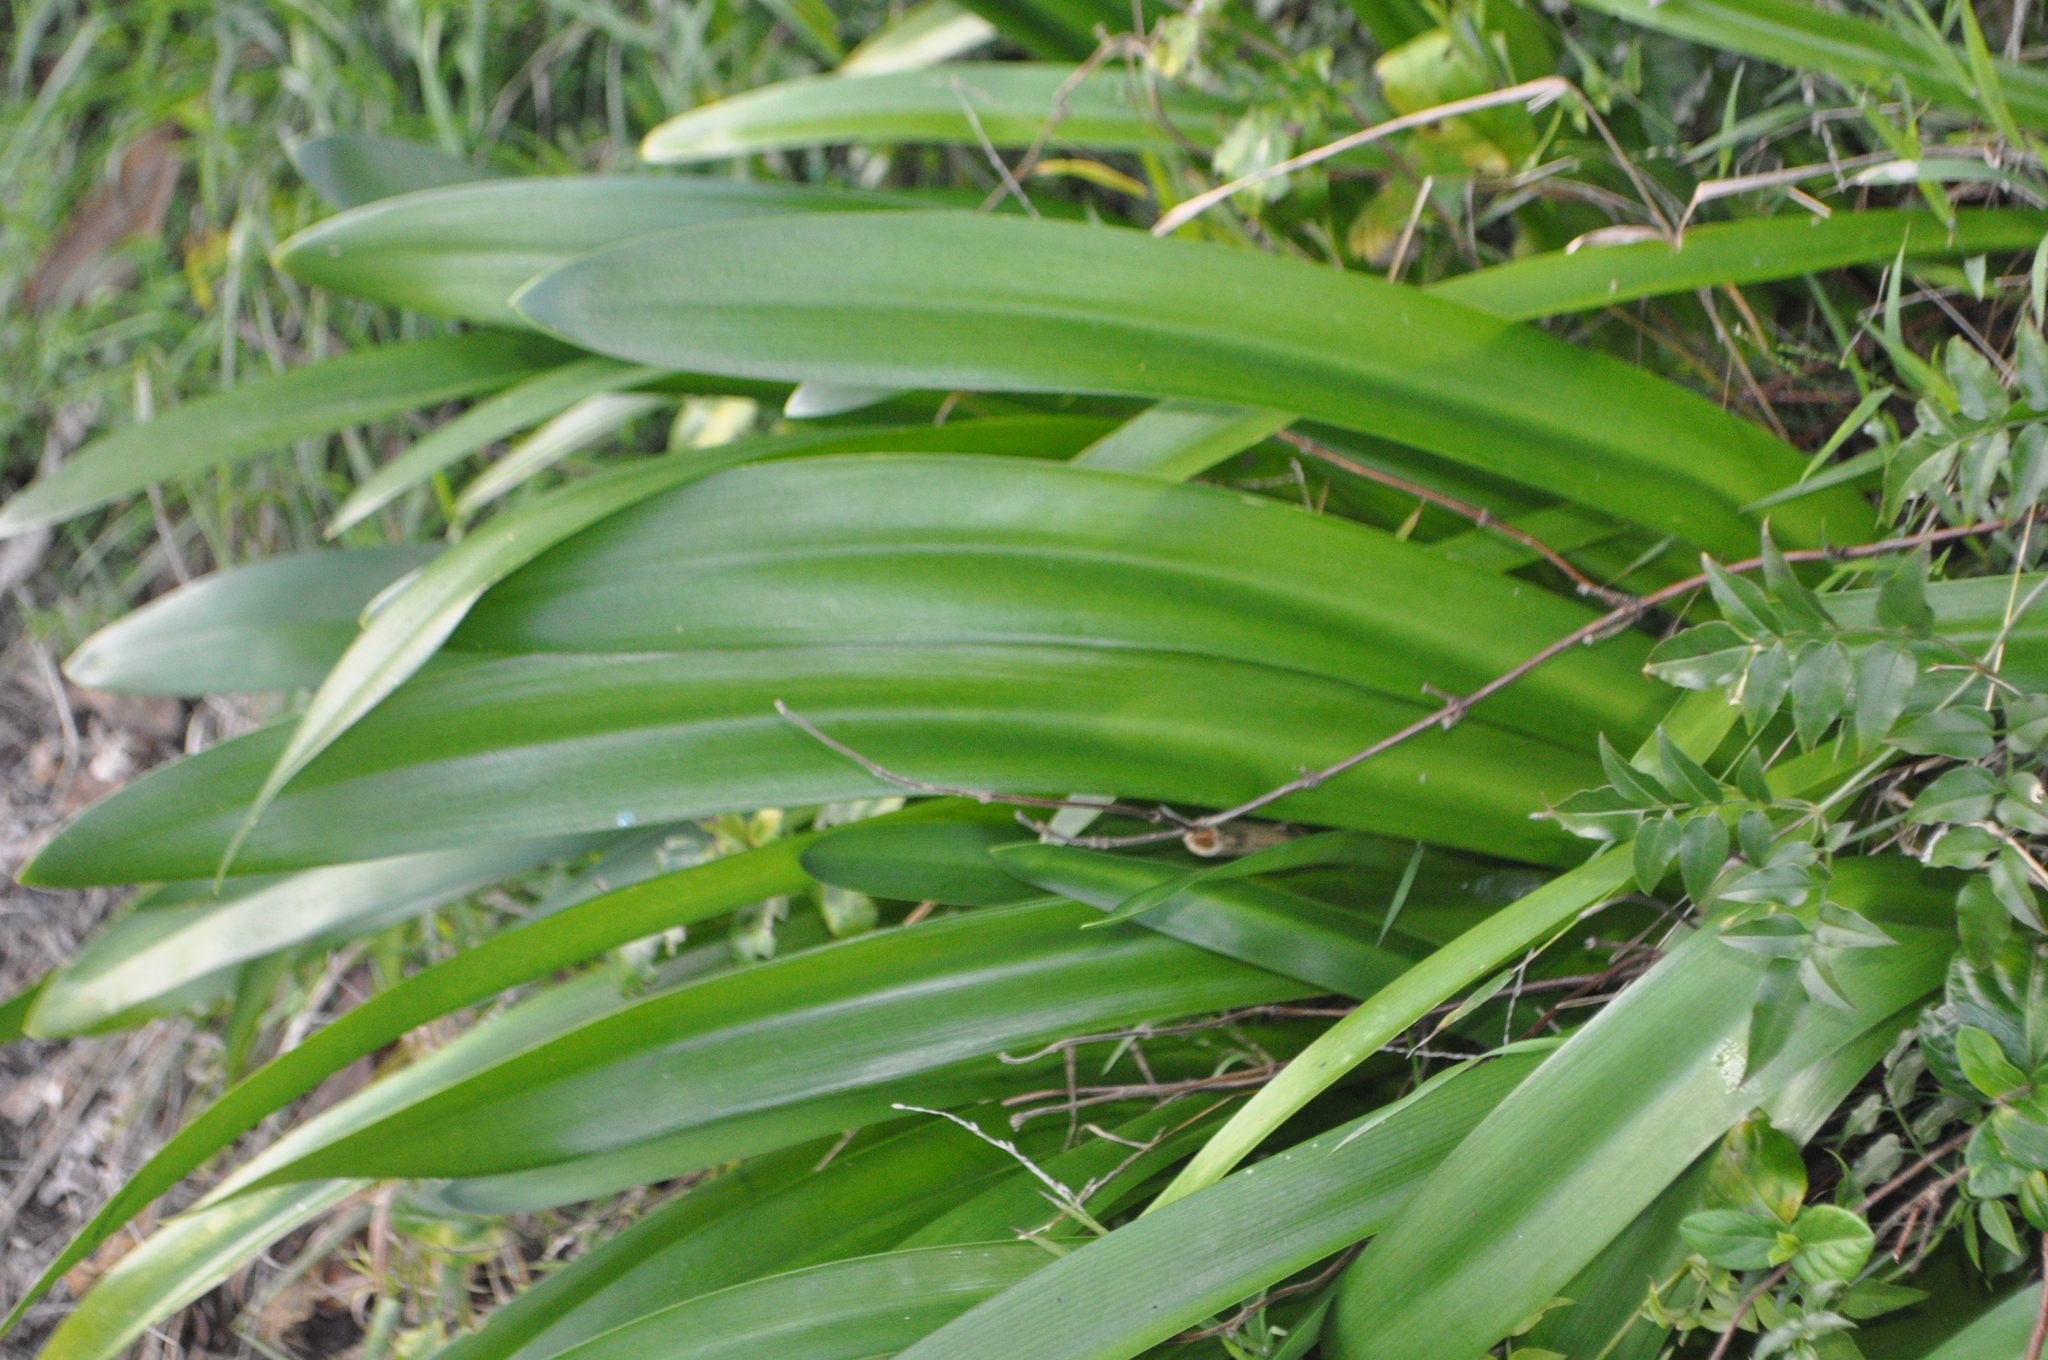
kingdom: Plantae
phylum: Tracheophyta
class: Liliopsida
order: Asparagales
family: Amaryllidaceae
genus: Agapanthus
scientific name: Agapanthus praecox
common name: African-lily
